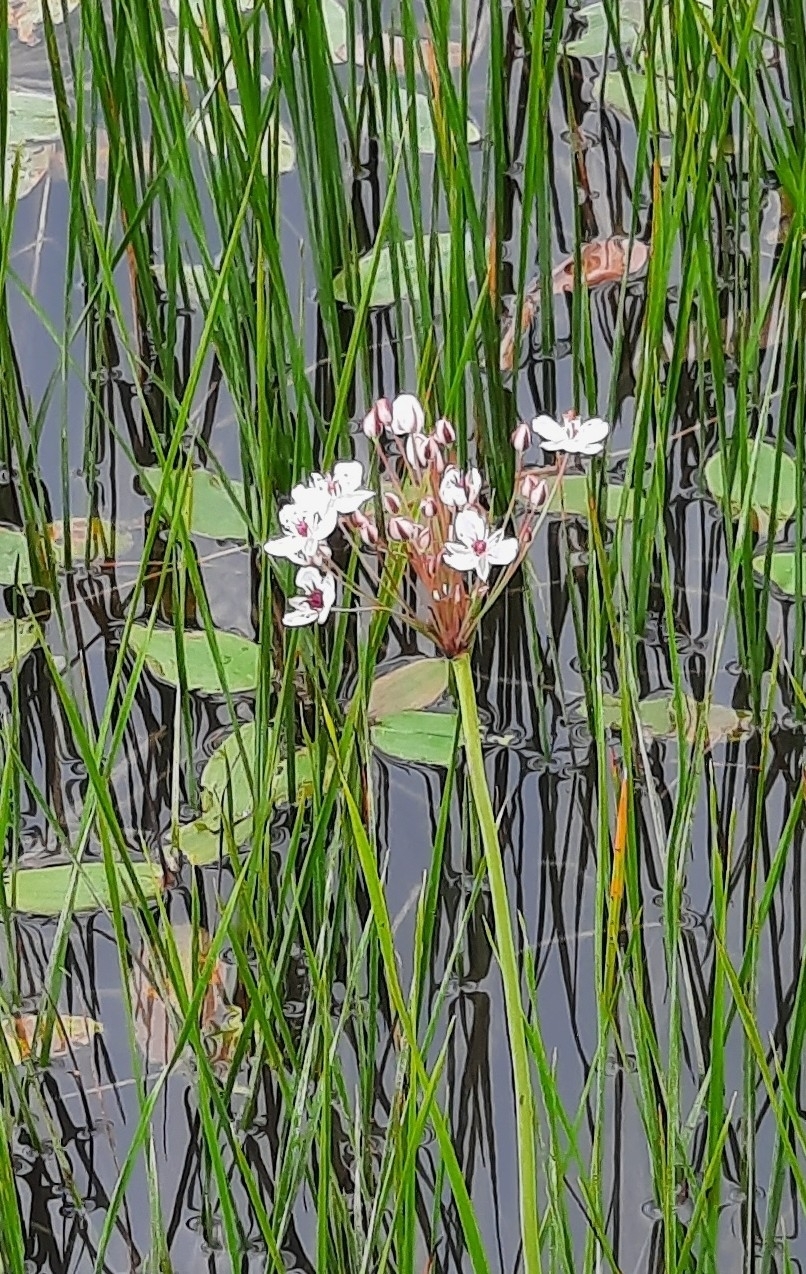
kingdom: Plantae
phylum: Tracheophyta
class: Liliopsida
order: Alismatales
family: Butomaceae
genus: Butomus
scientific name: Butomus umbellatus
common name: Flowering-rush
